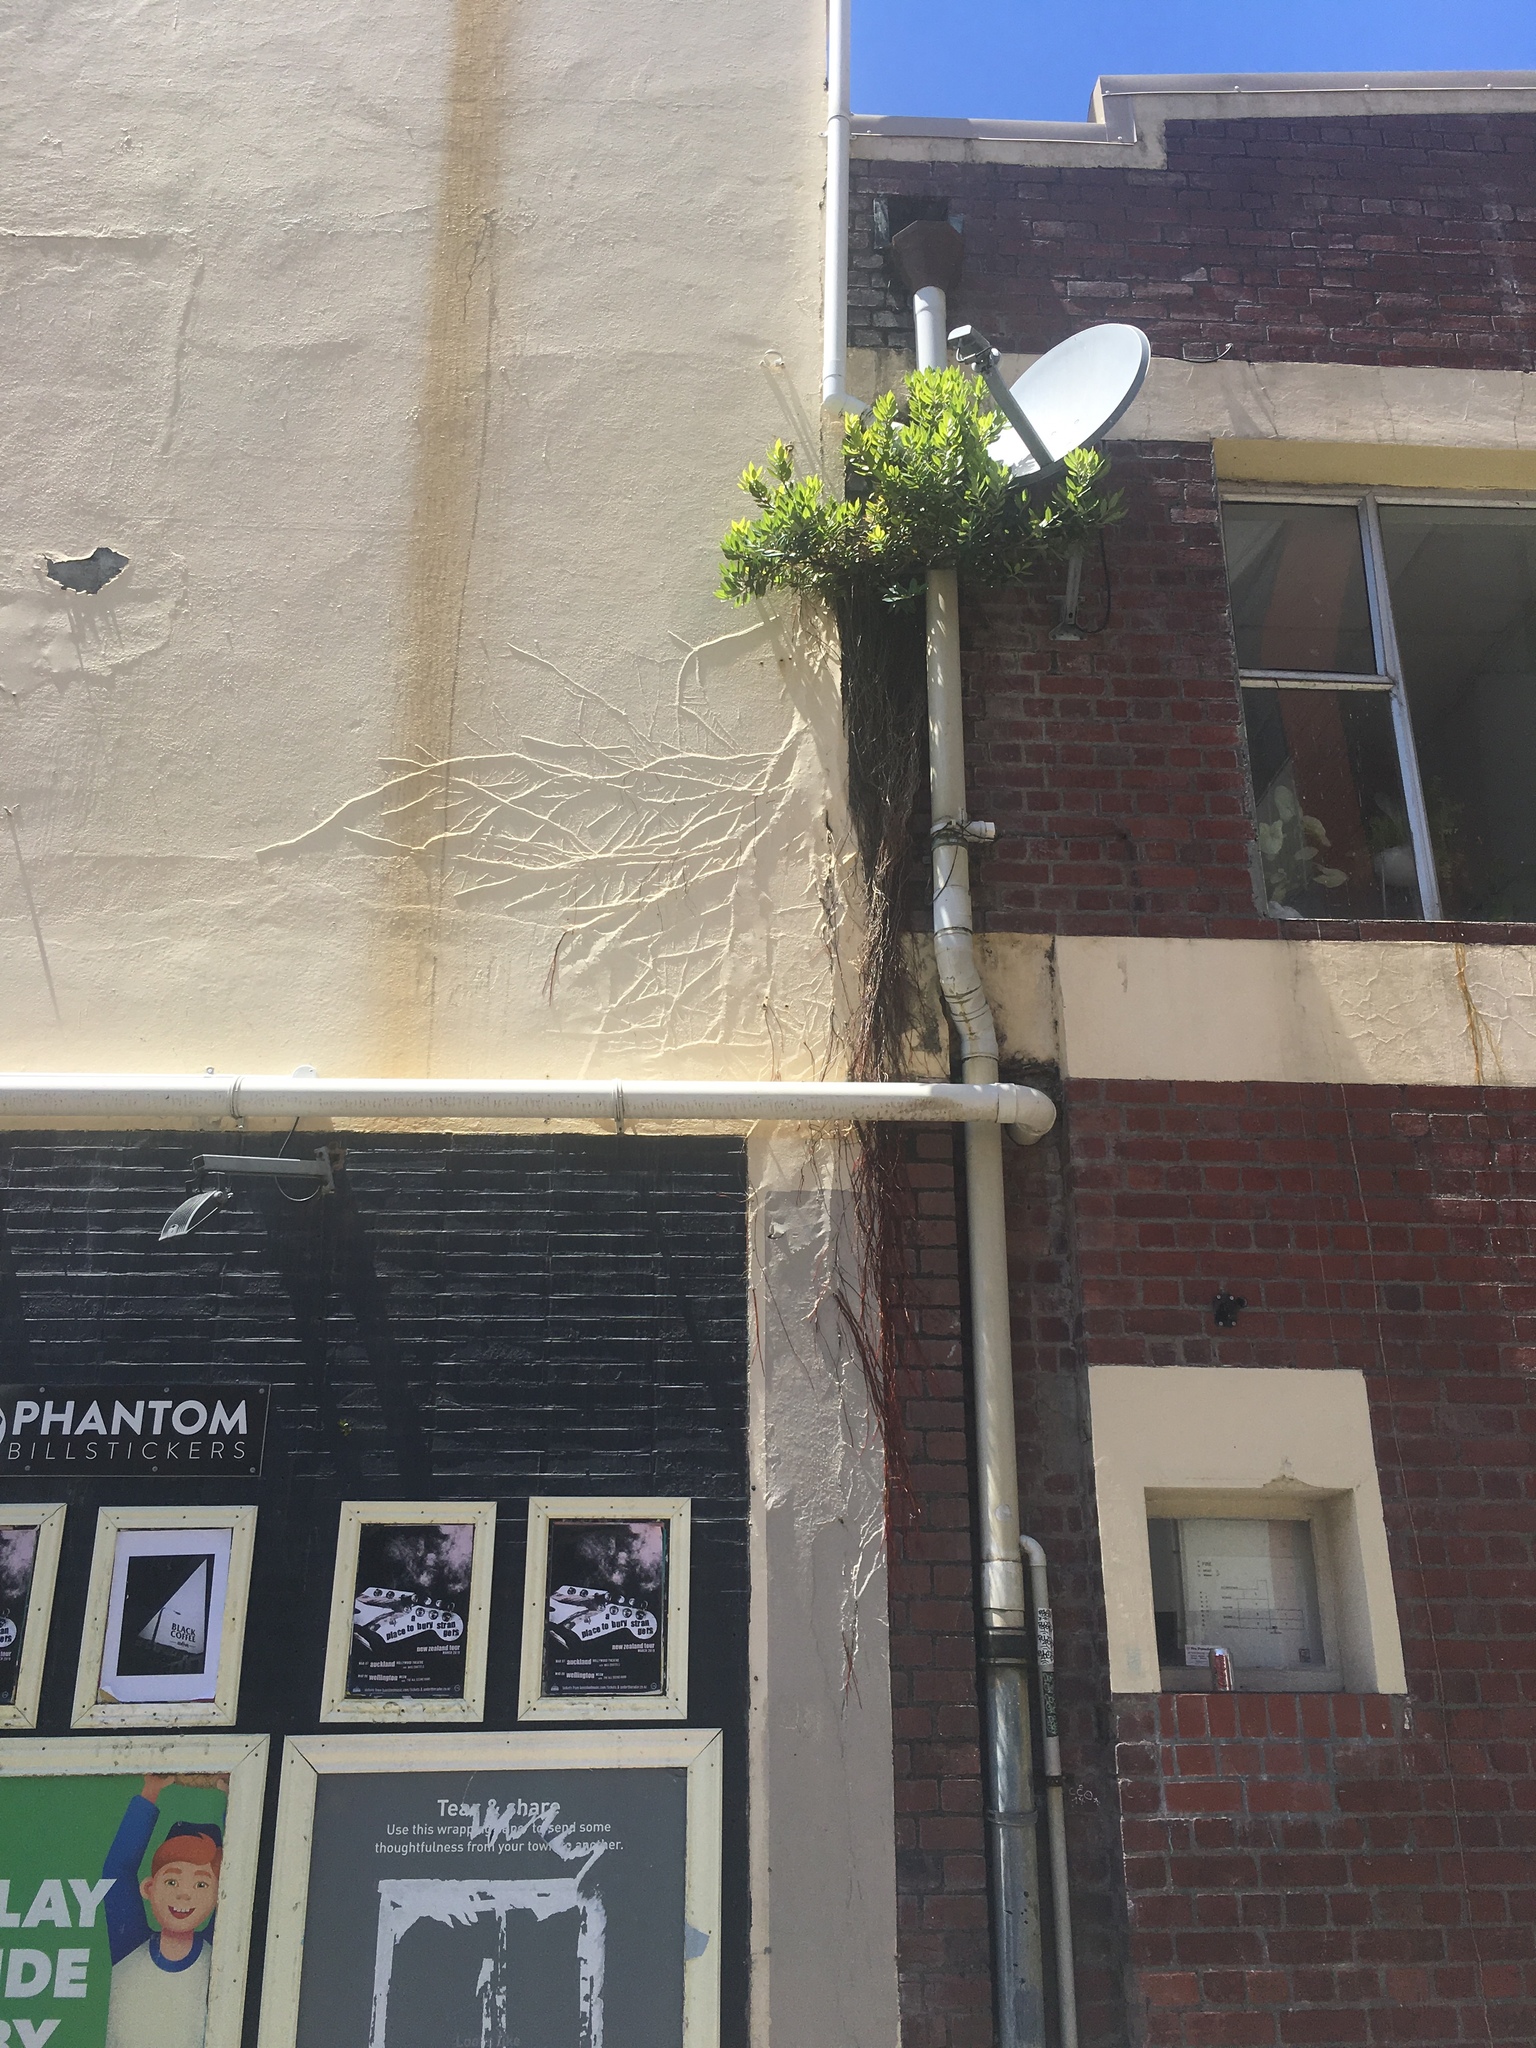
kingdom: Plantae
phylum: Tracheophyta
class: Magnoliopsida
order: Myrtales
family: Myrtaceae
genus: Metrosideros
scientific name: Metrosideros excelsa
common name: New zealand christmastree
